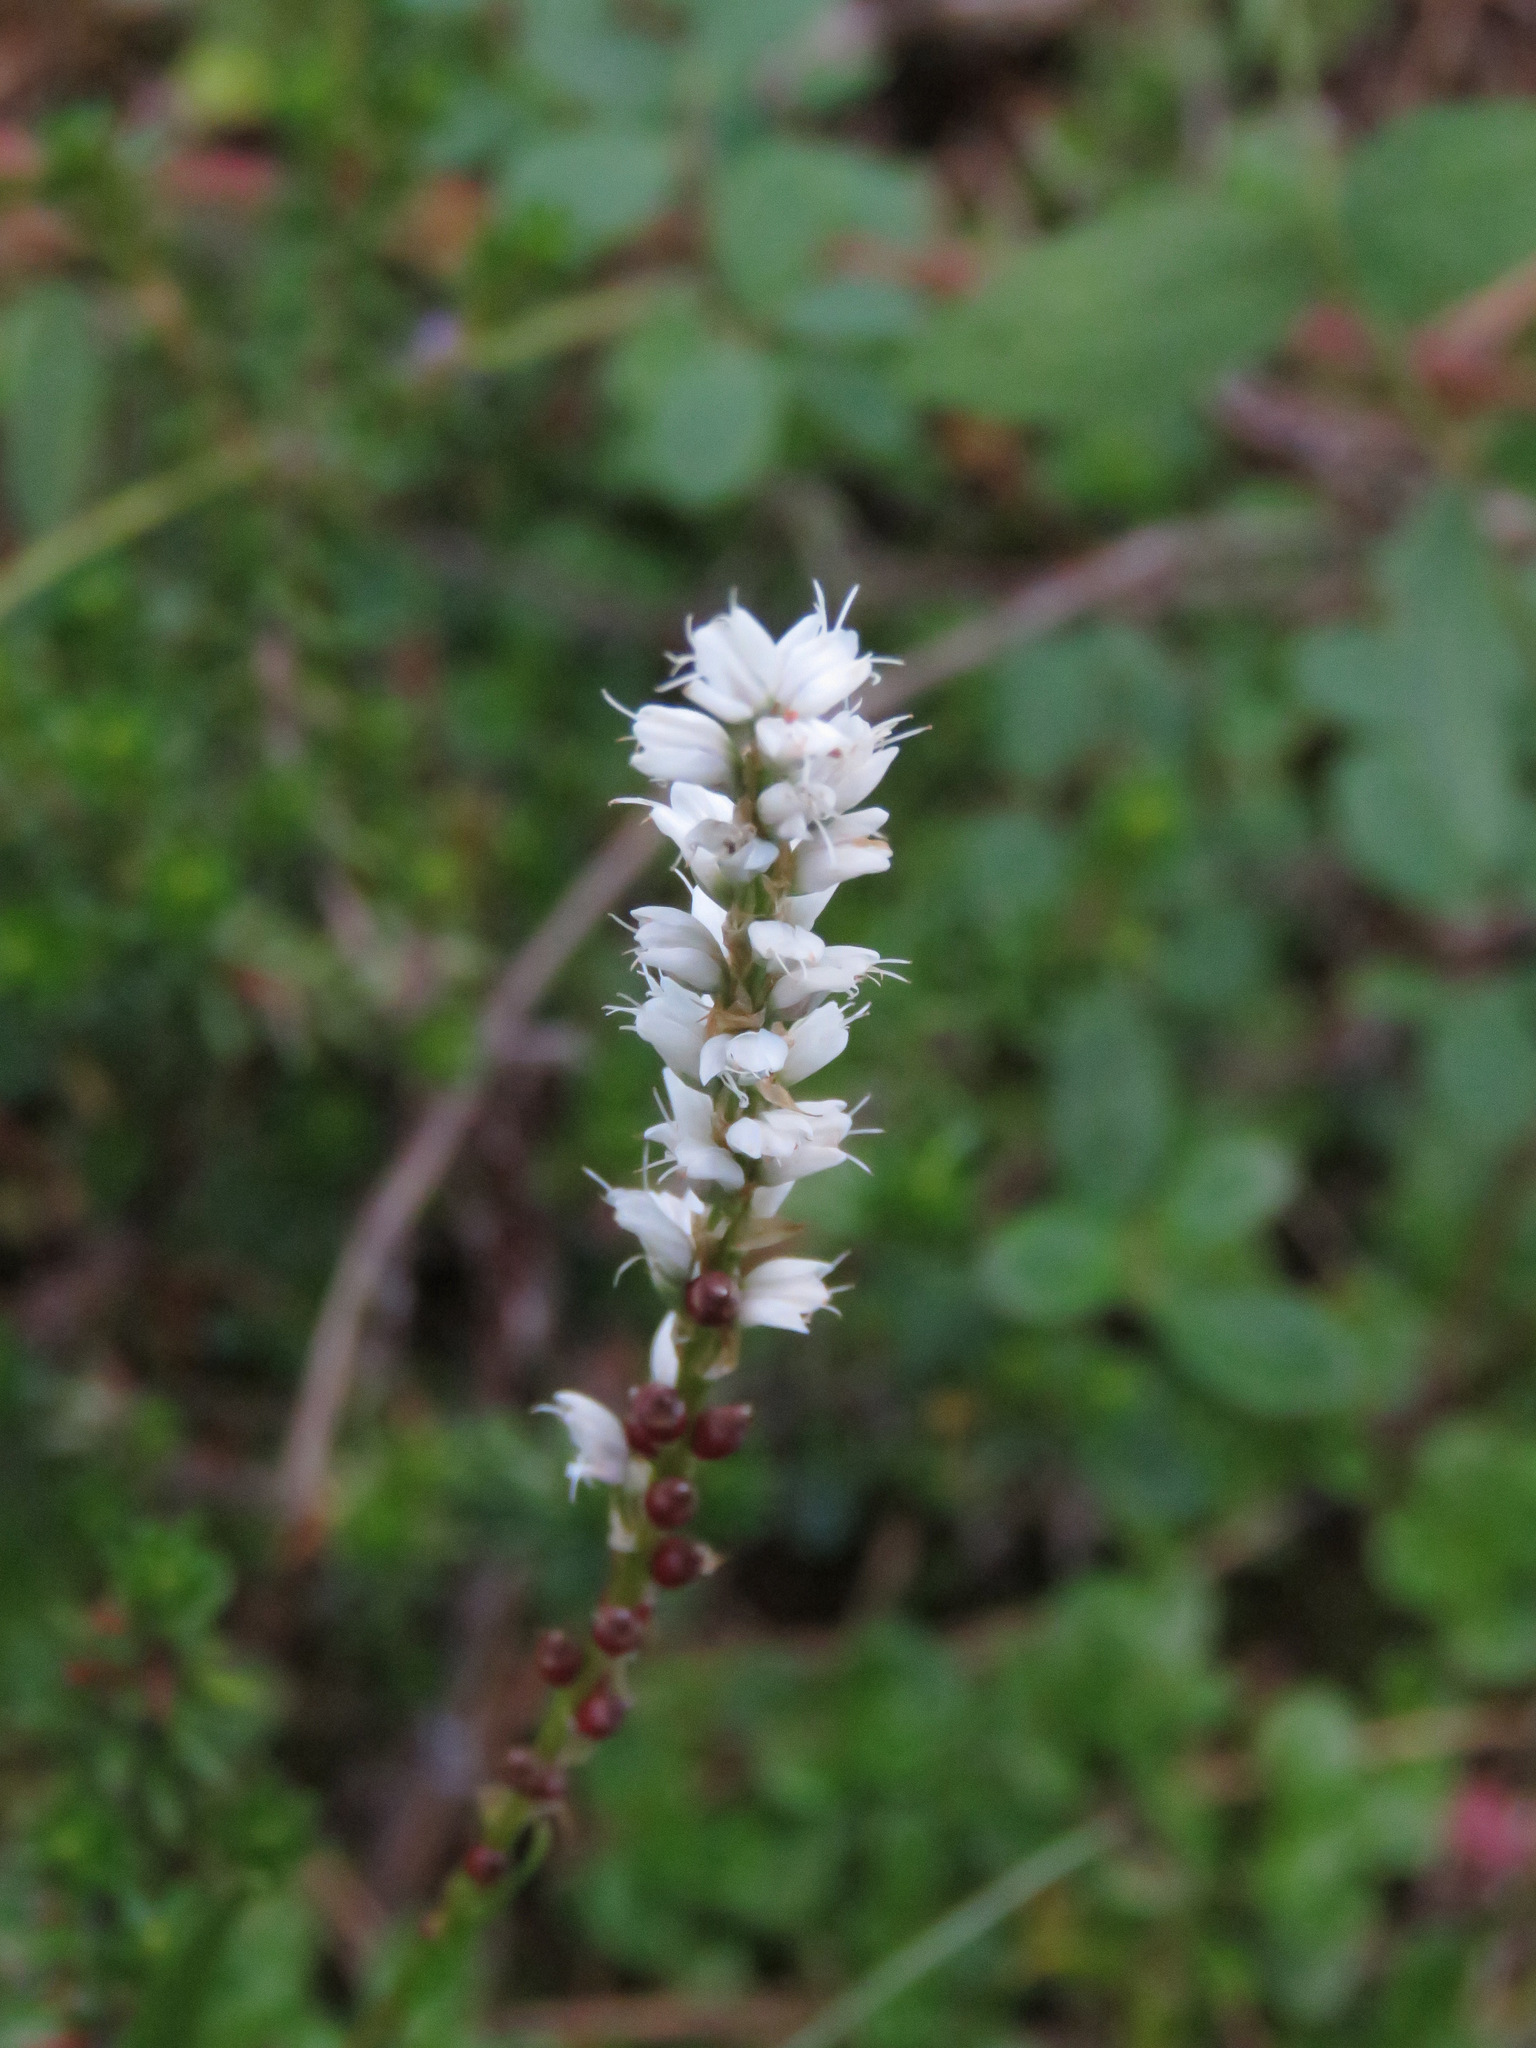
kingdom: Plantae
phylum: Tracheophyta
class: Magnoliopsida
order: Caryophyllales
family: Polygonaceae
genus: Bistorta
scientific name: Bistorta vivipara
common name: Alpine bistort
